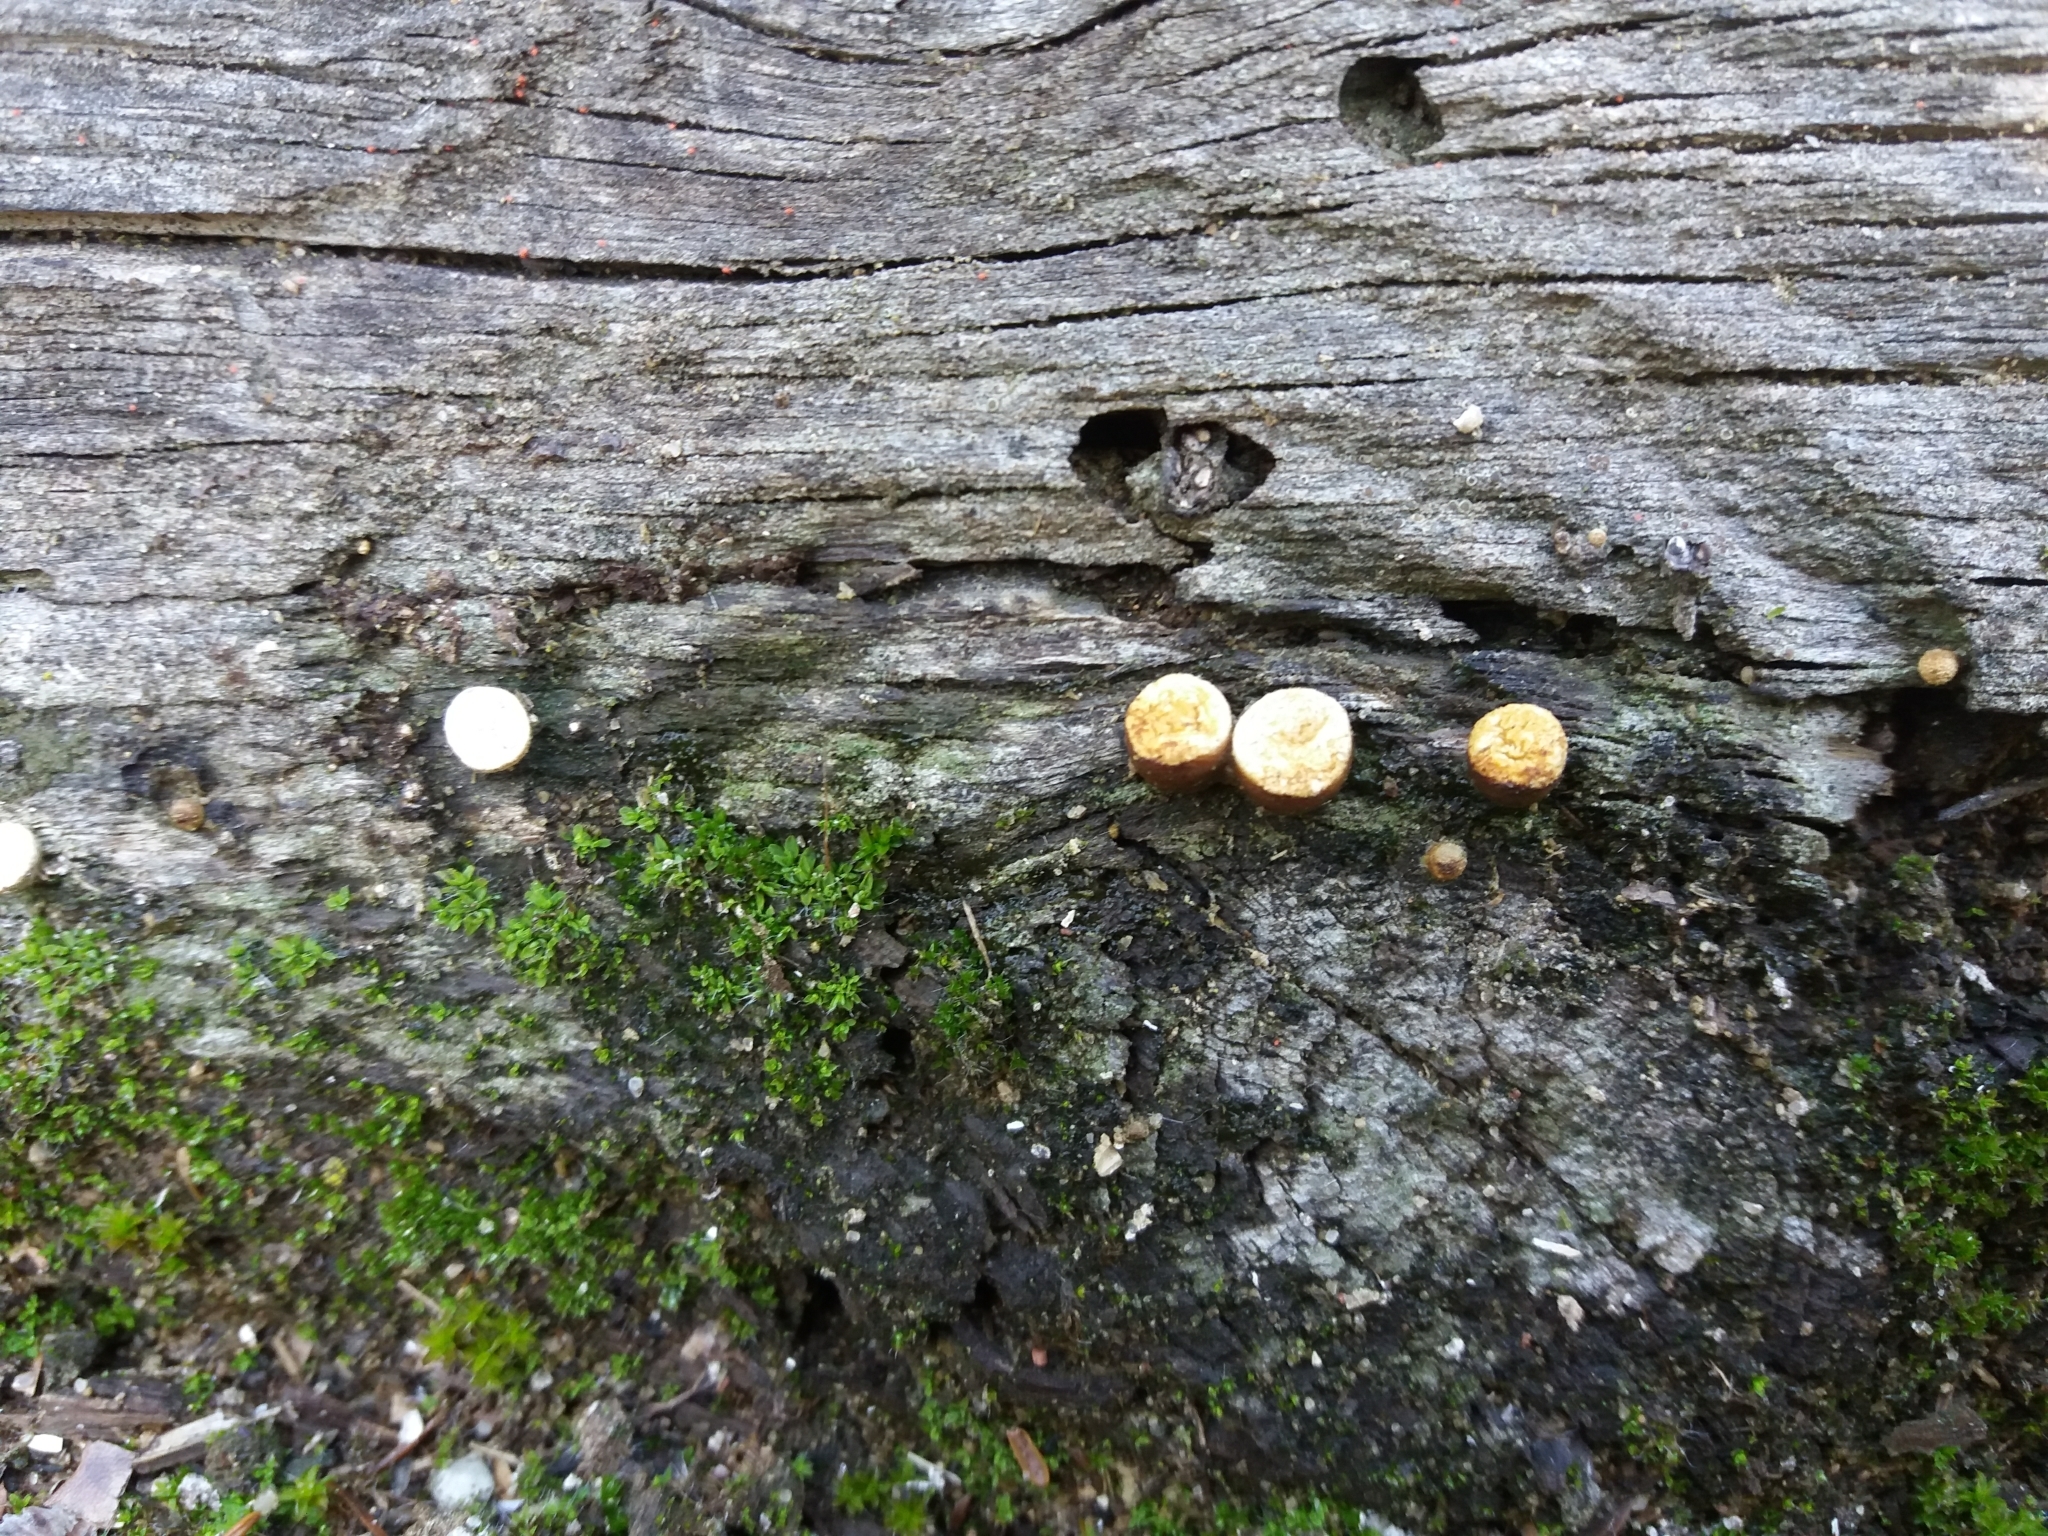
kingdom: Fungi
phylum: Basidiomycota
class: Agaricomycetes
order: Agaricales
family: Nidulariaceae
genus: Crucibulum
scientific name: Crucibulum laeve
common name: Common bird's nest
